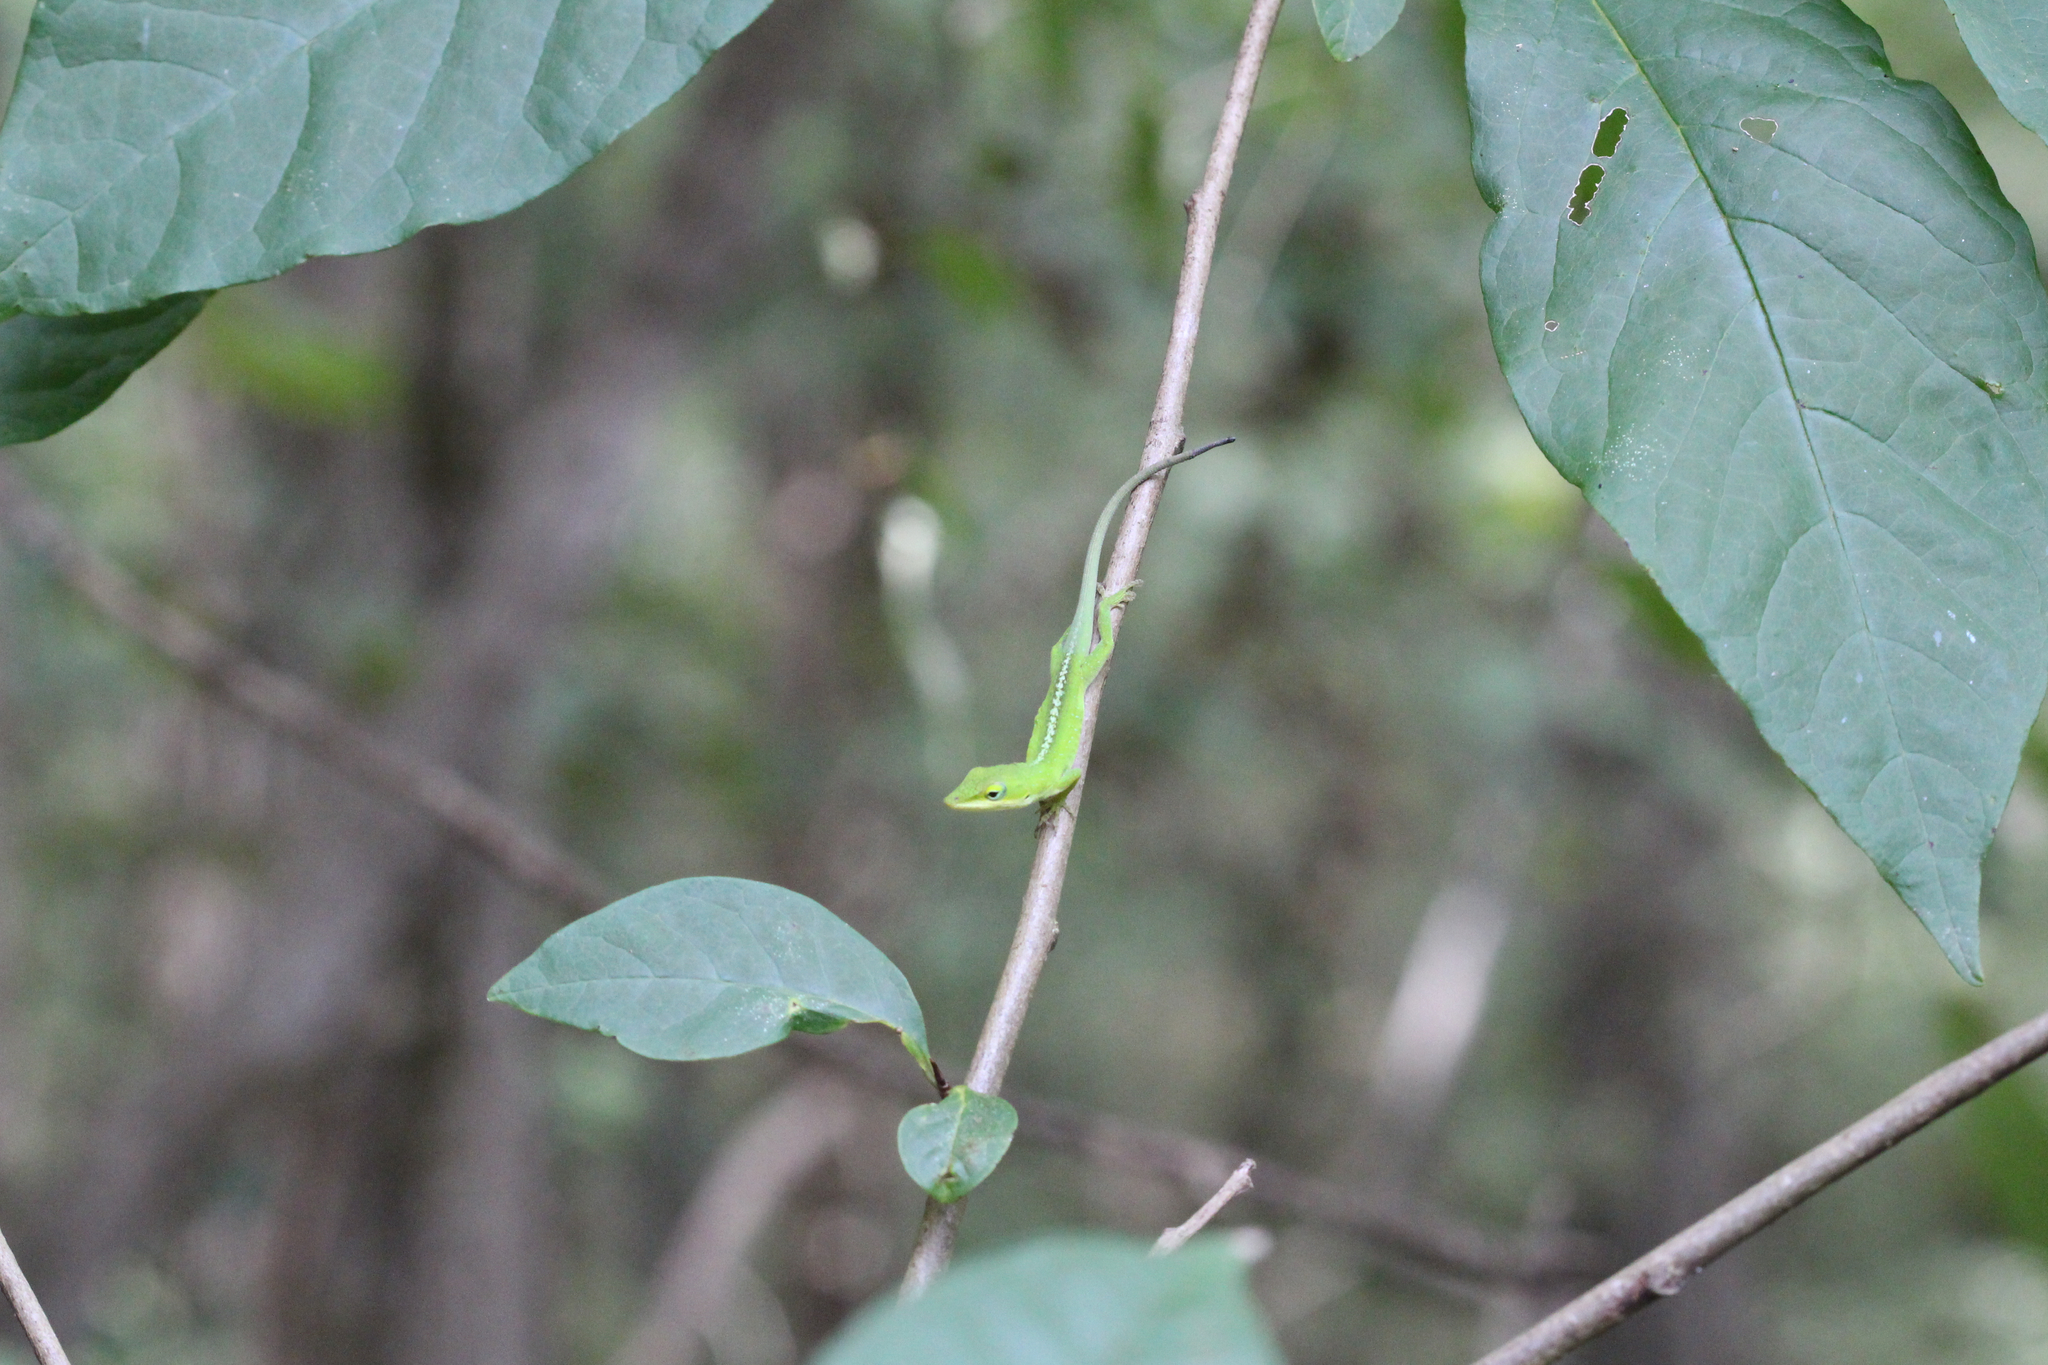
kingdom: Animalia
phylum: Chordata
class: Squamata
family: Dactyloidae
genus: Anolis
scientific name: Anolis carolinensis
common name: Green anole
